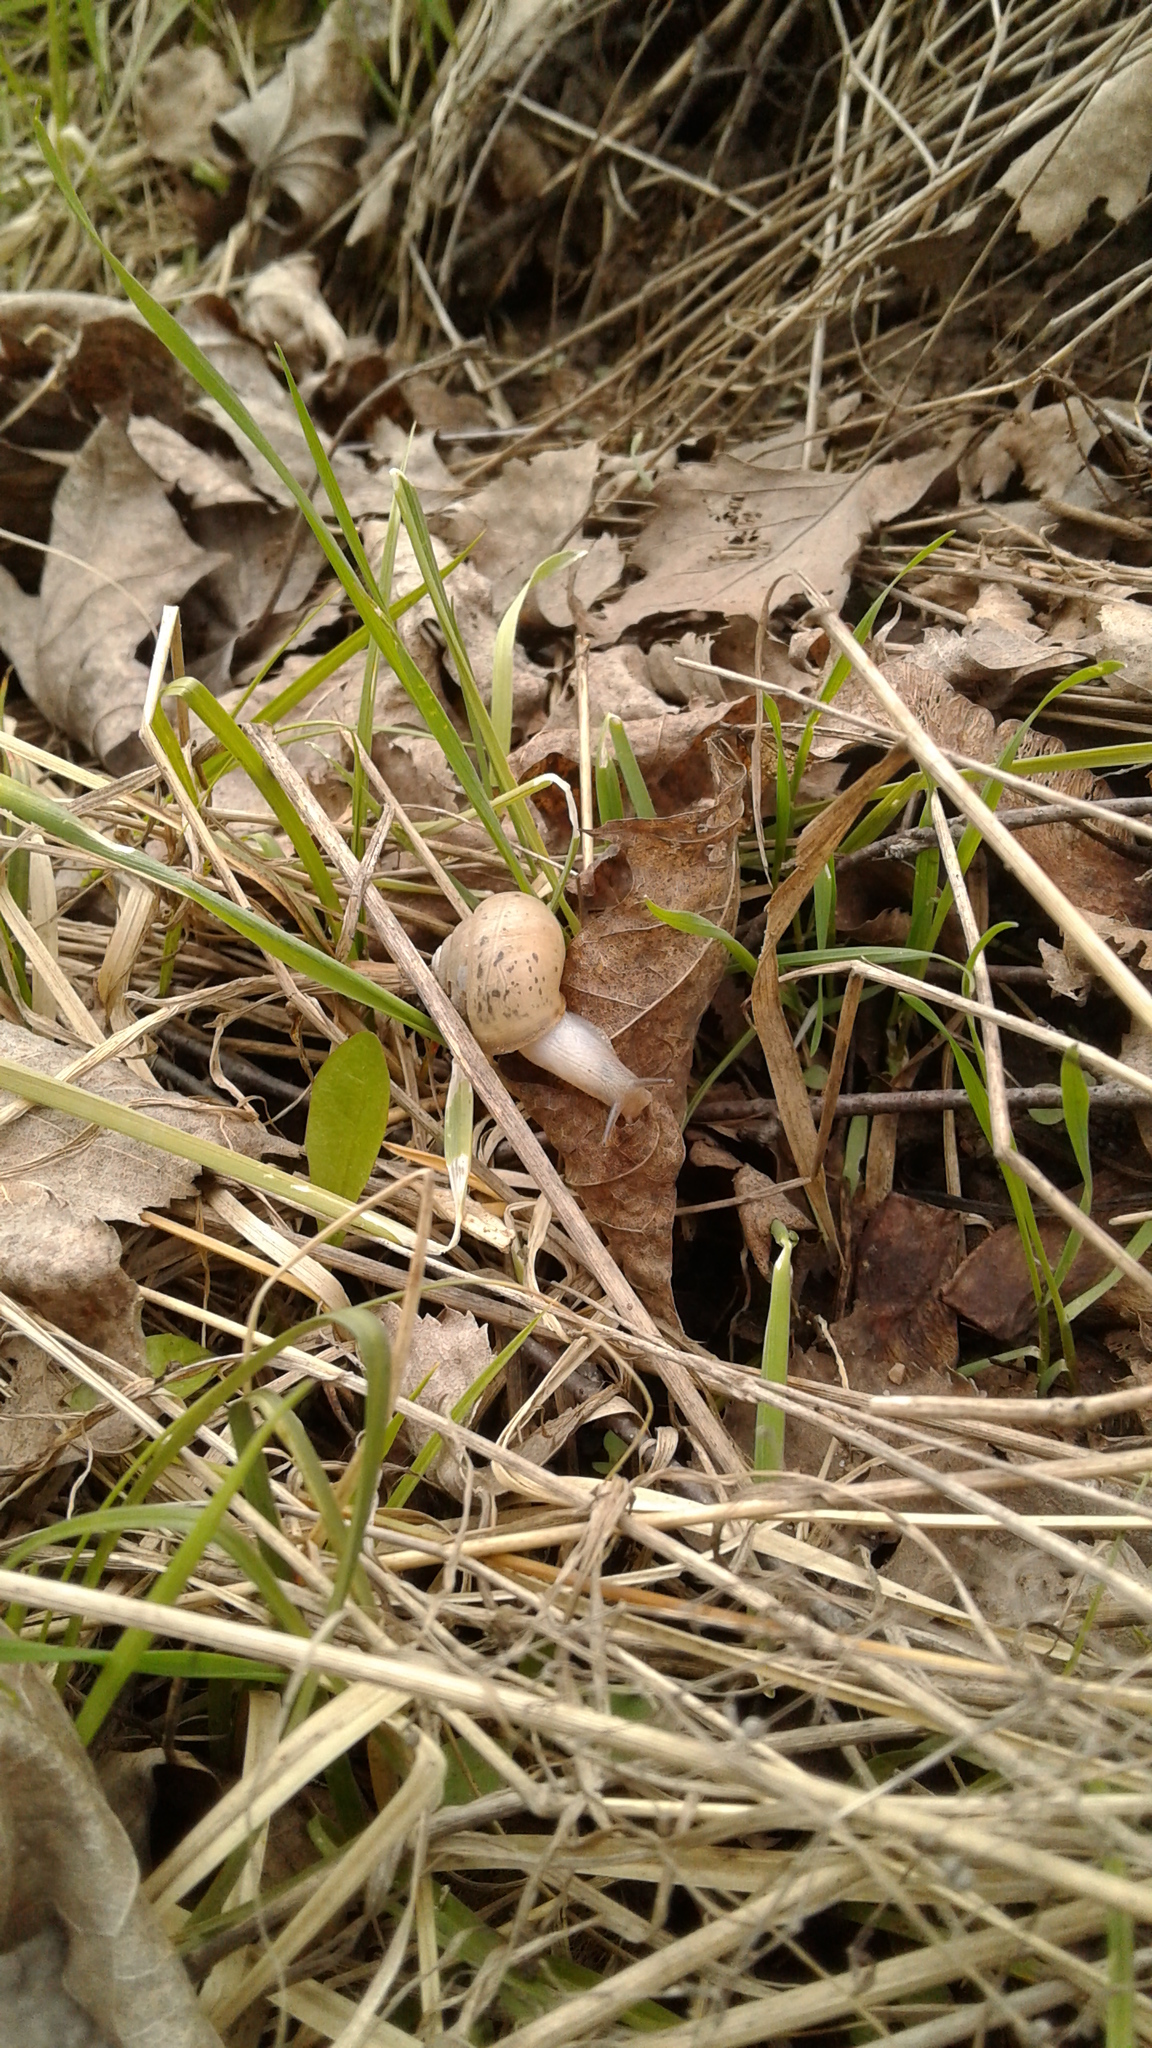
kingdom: Animalia
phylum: Mollusca
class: Gastropoda
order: Stylommatophora
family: Camaenidae
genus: Fruticicola
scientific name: Fruticicola fruticum
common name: Bush snail
